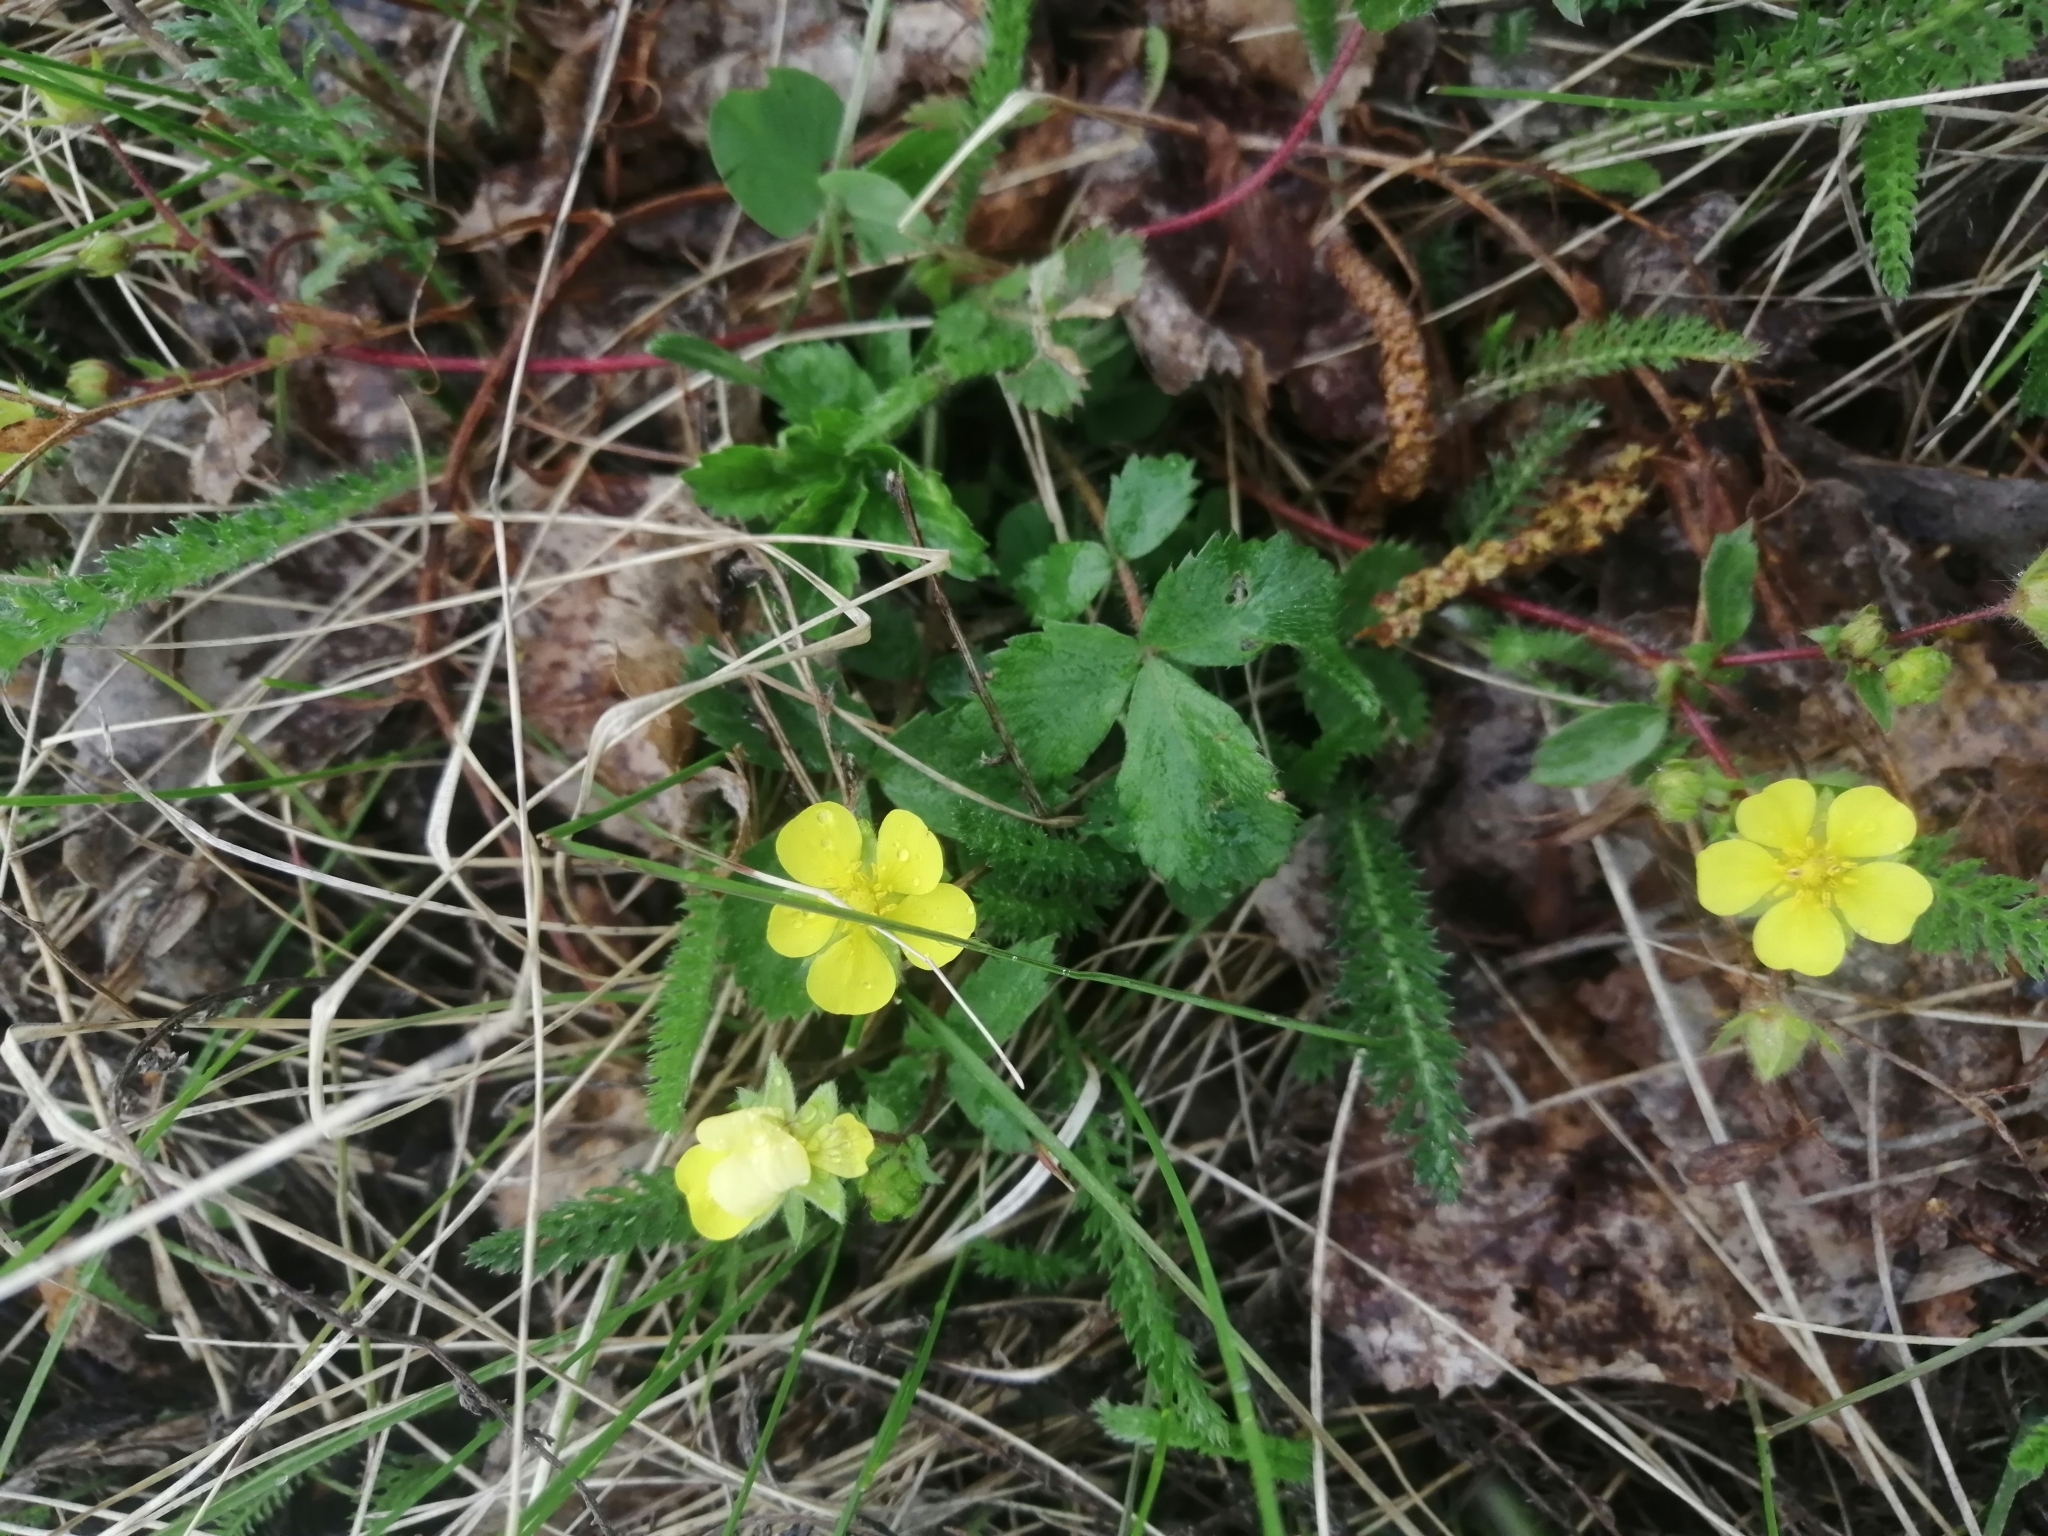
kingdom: Plantae
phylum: Tracheophyta
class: Magnoliopsida
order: Rosales
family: Rosaceae
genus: Potentilla
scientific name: Potentilla fragarioides
